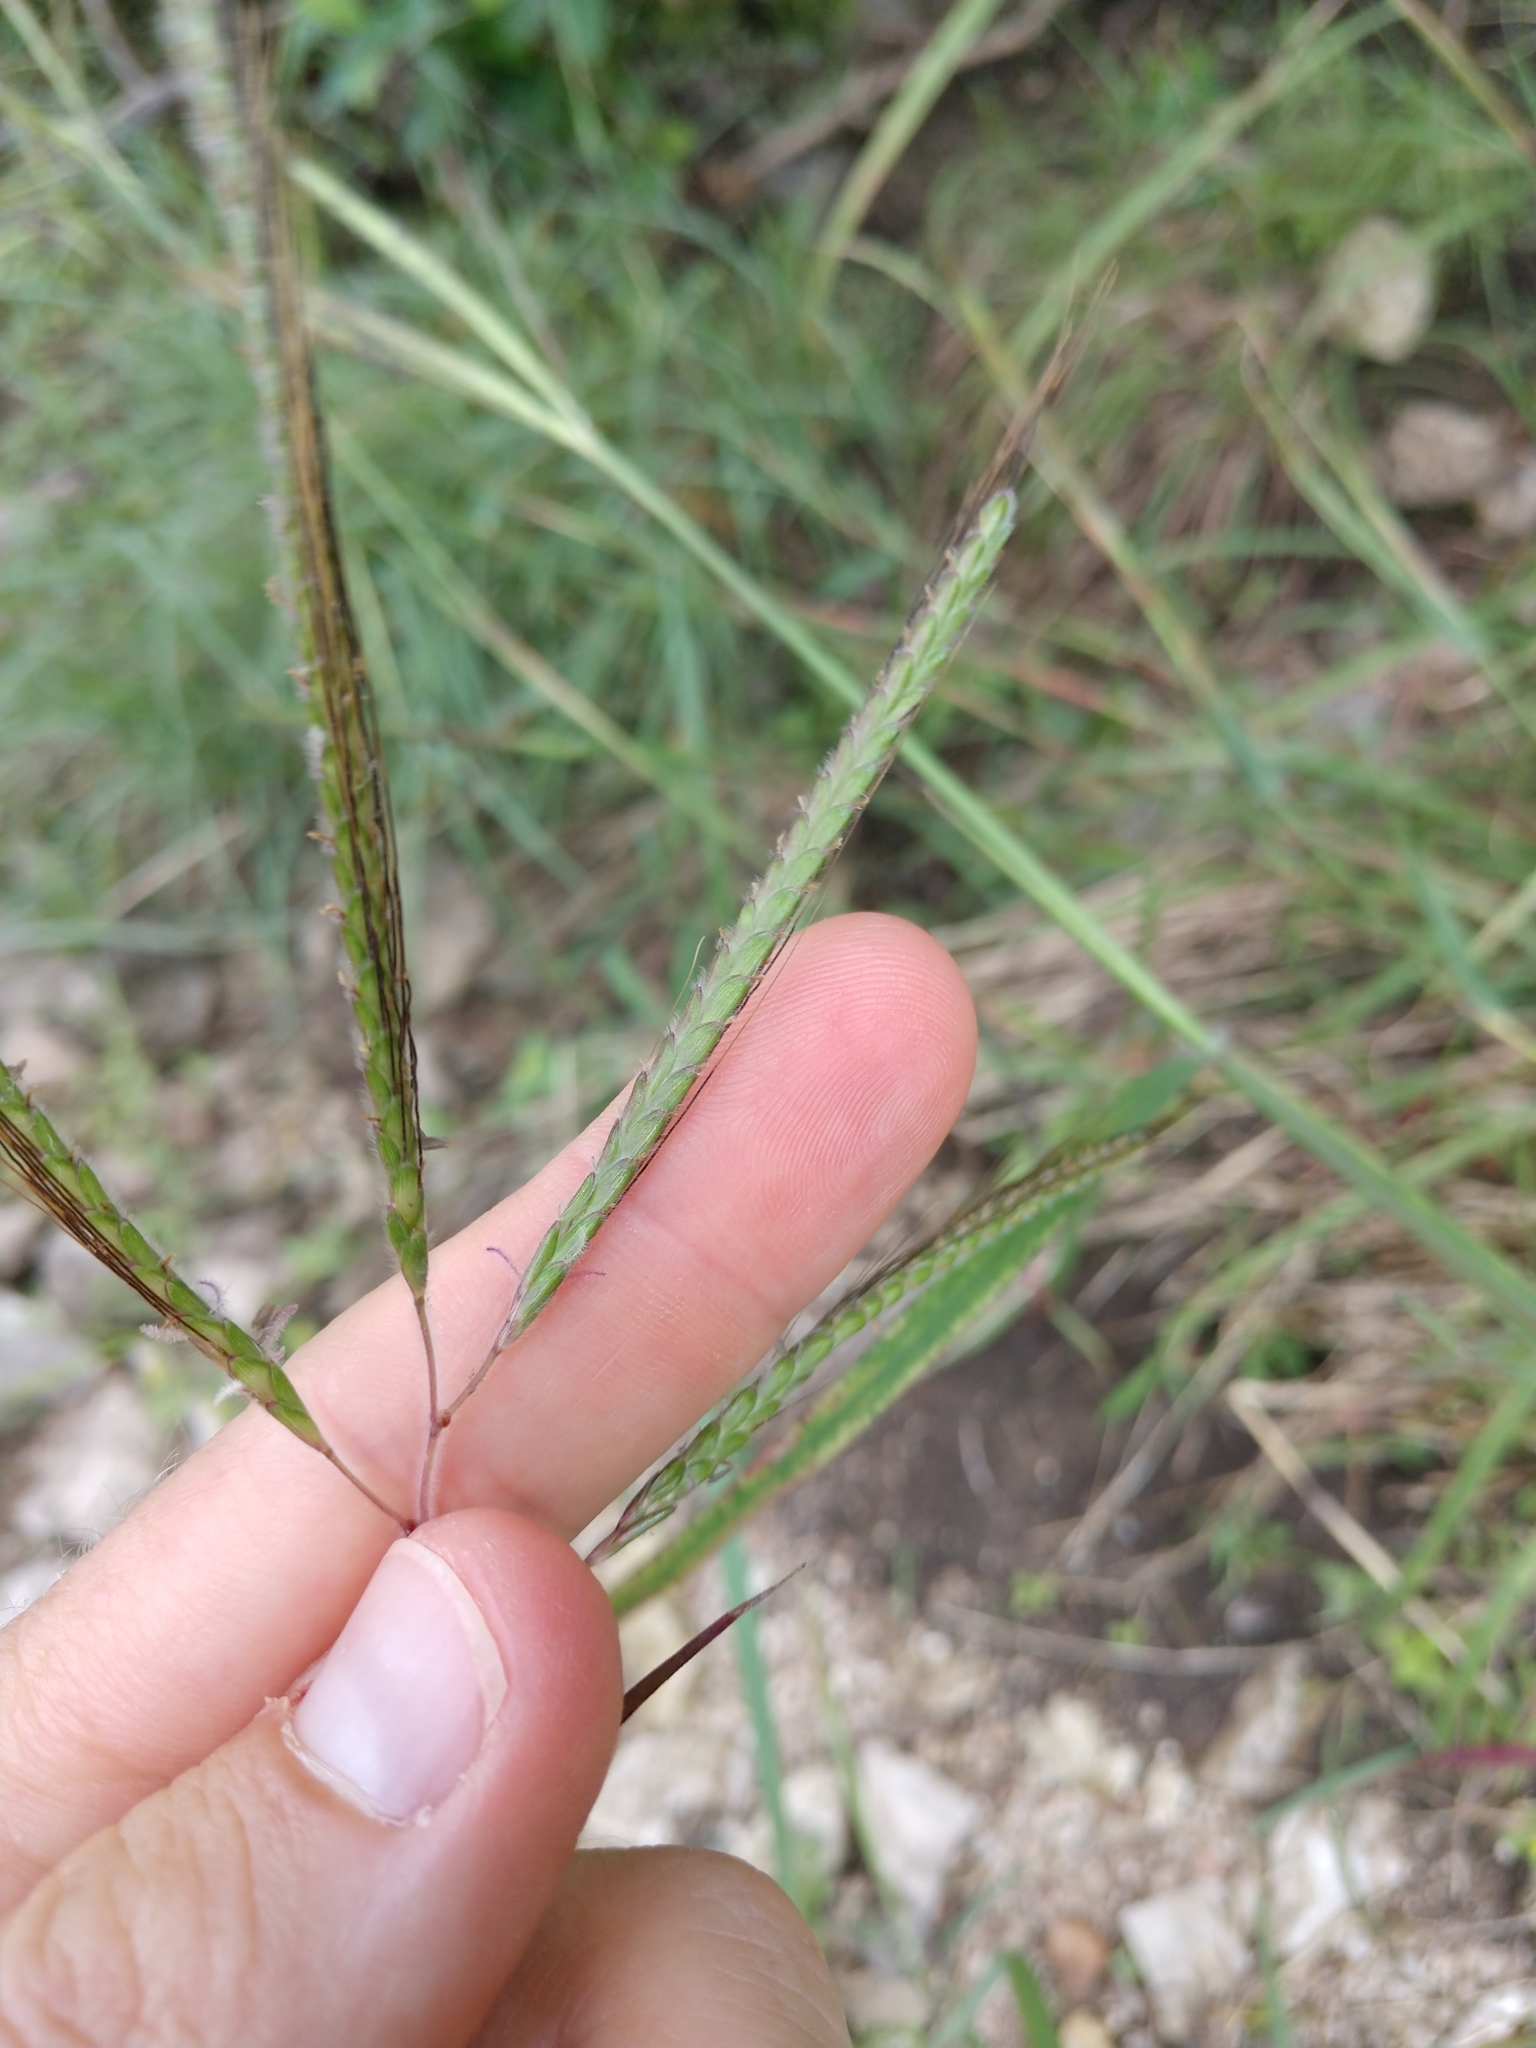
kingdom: Plantae
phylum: Tracheophyta
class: Liliopsida
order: Poales
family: Poaceae
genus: Dichanthium
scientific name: Dichanthium aristatum
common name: Angleton bluestem
